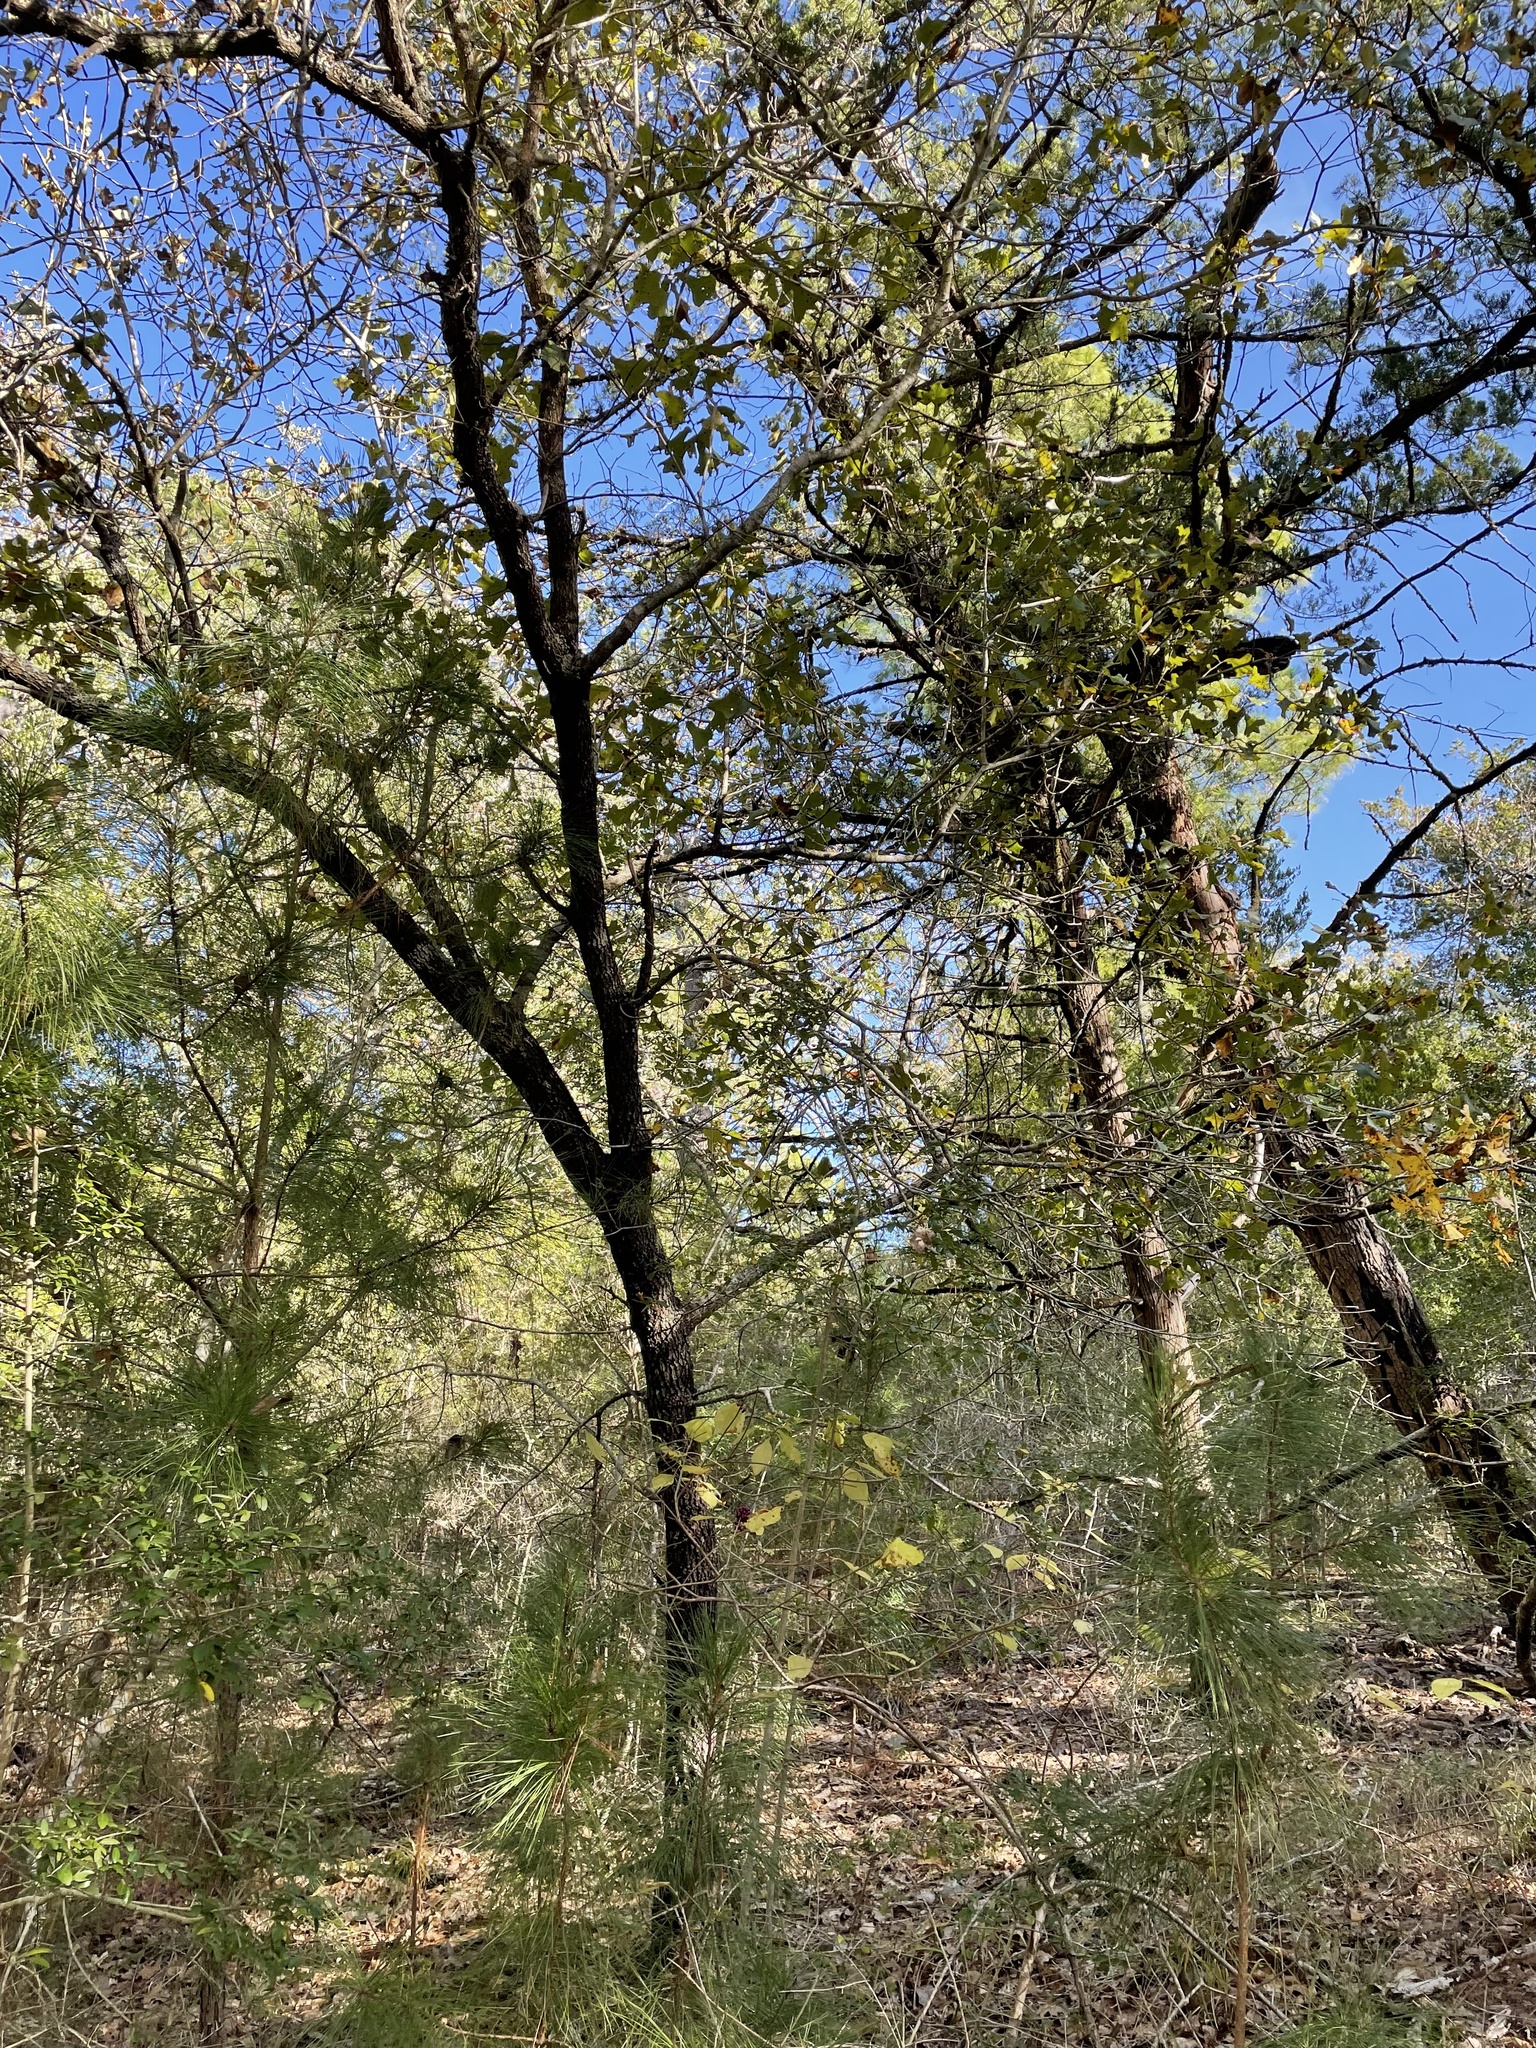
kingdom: Plantae
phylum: Tracheophyta
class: Magnoliopsida
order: Fagales
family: Fagaceae
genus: Quercus
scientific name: Quercus marilandica
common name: Blackjack oak
